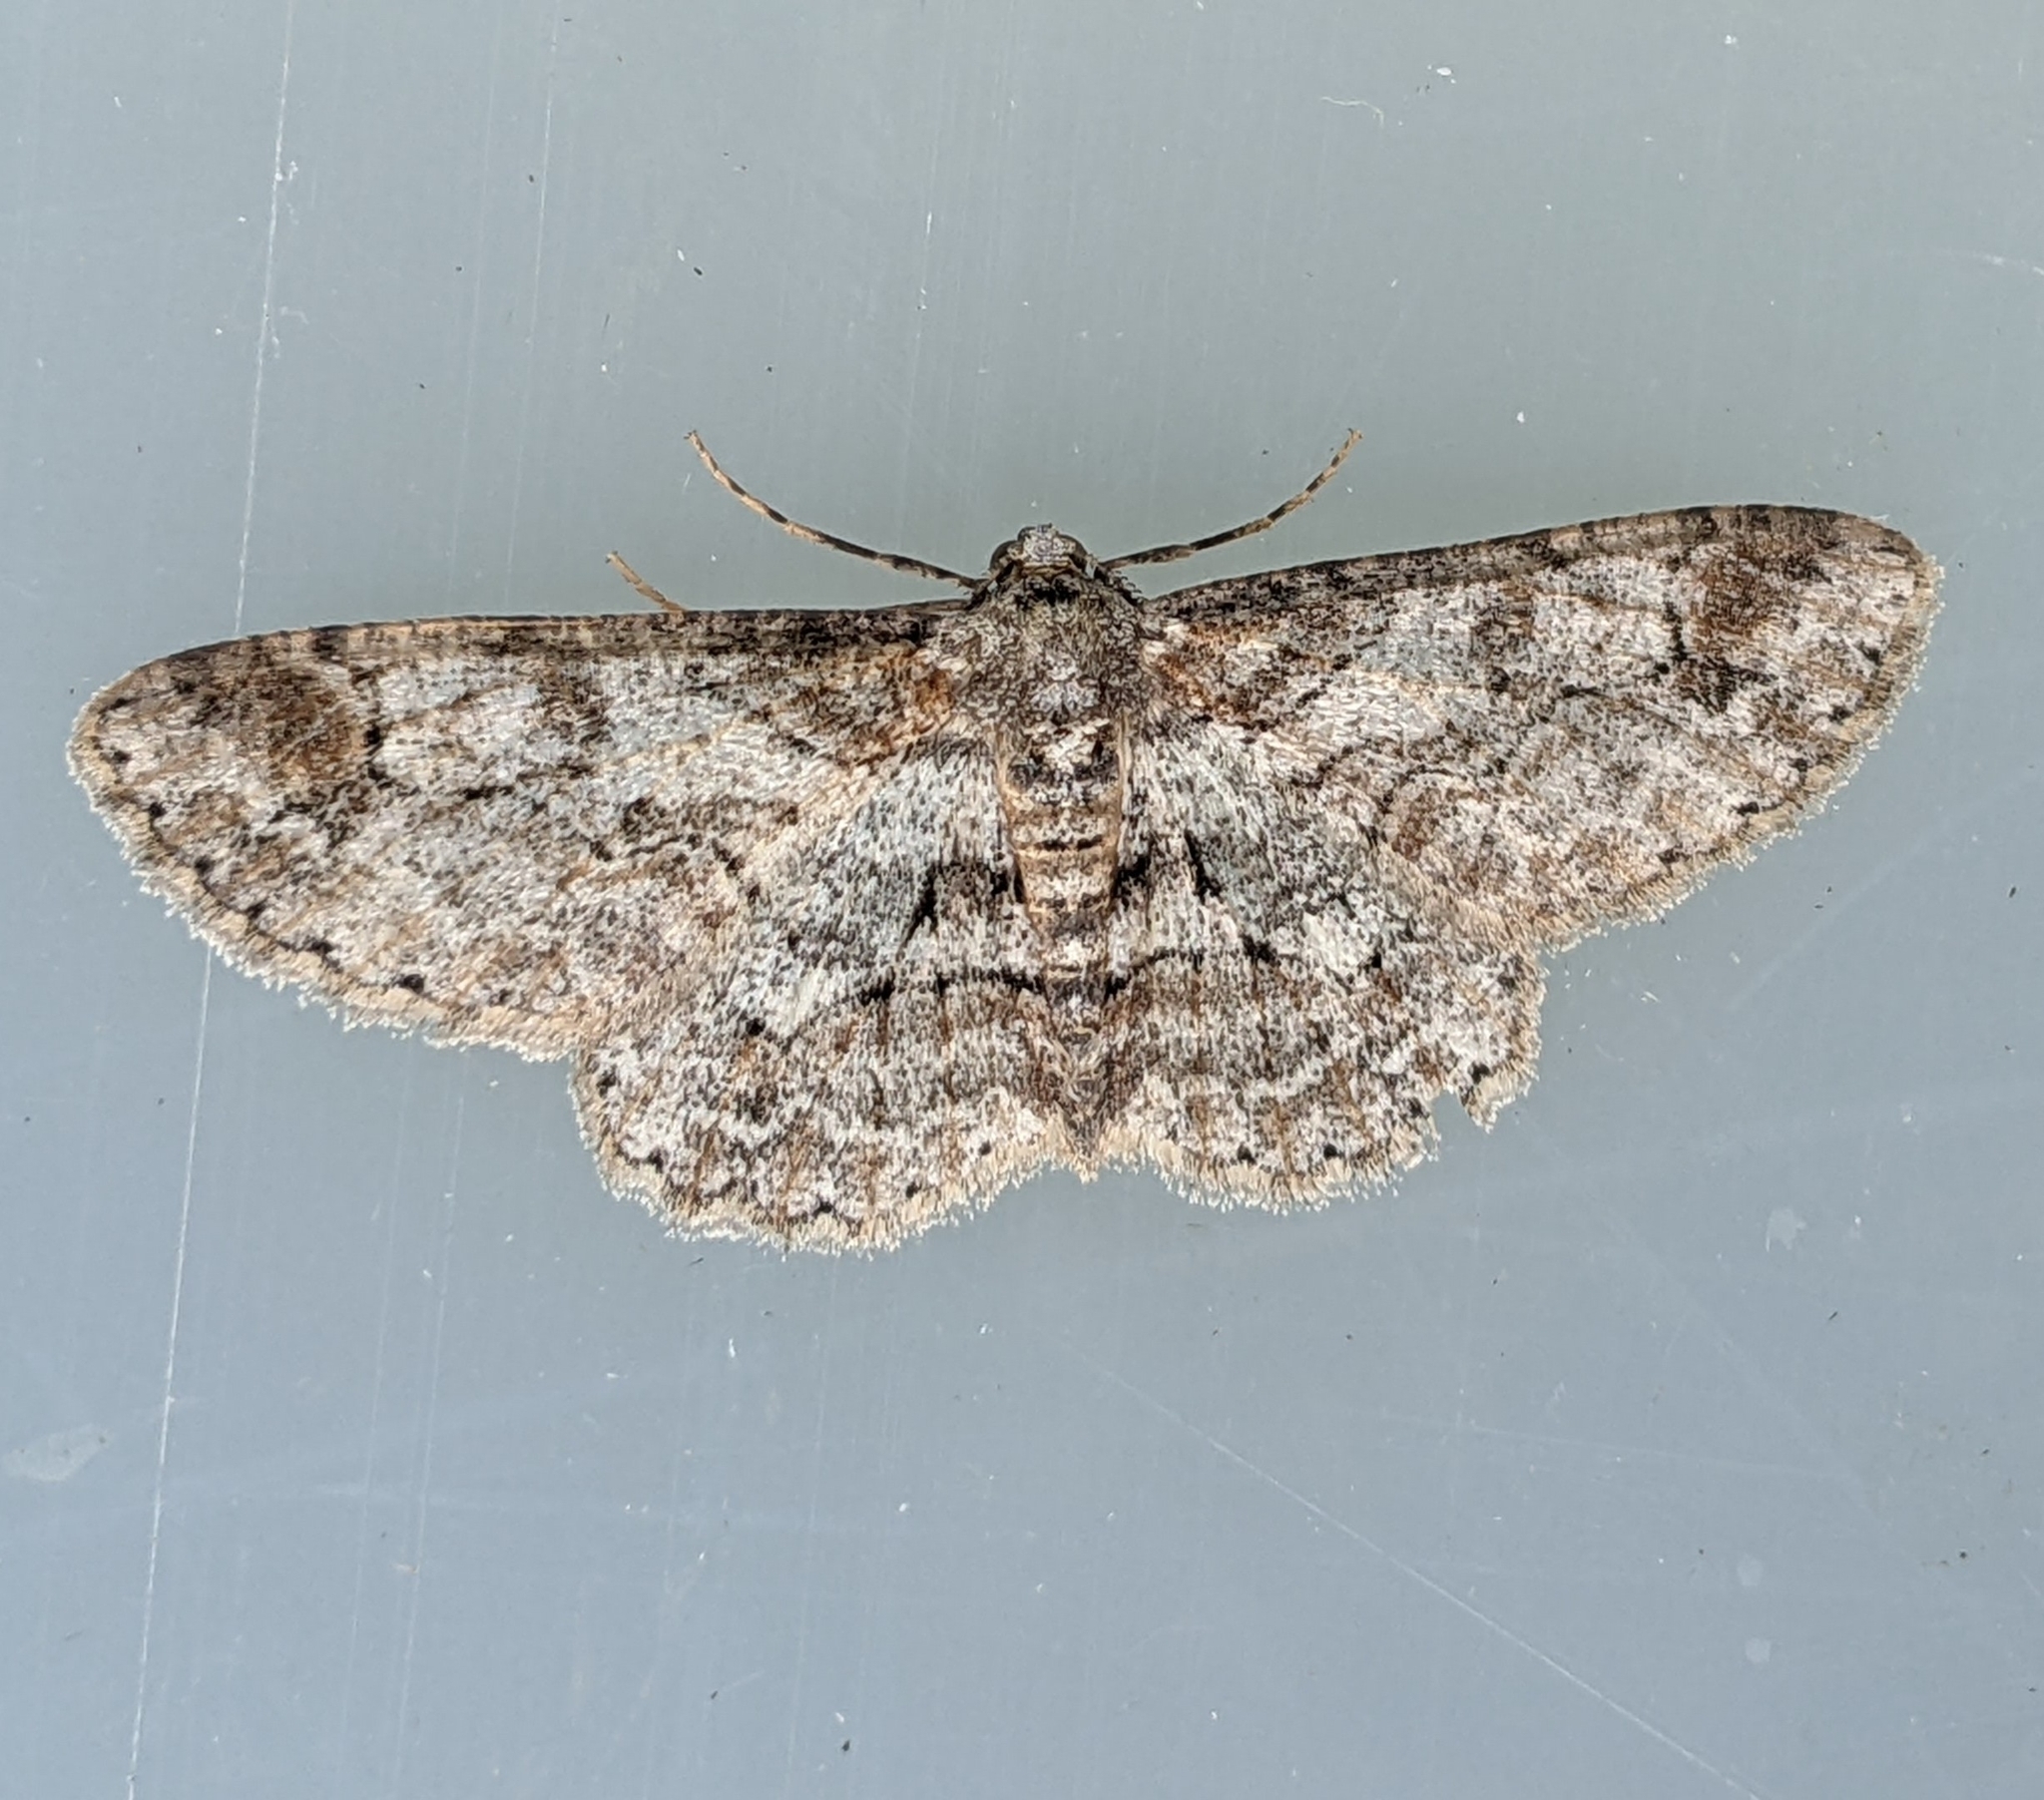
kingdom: Animalia
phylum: Arthropoda
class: Insecta
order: Lepidoptera
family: Geometridae
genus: Iridopsis
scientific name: Iridopsis emasculatum
